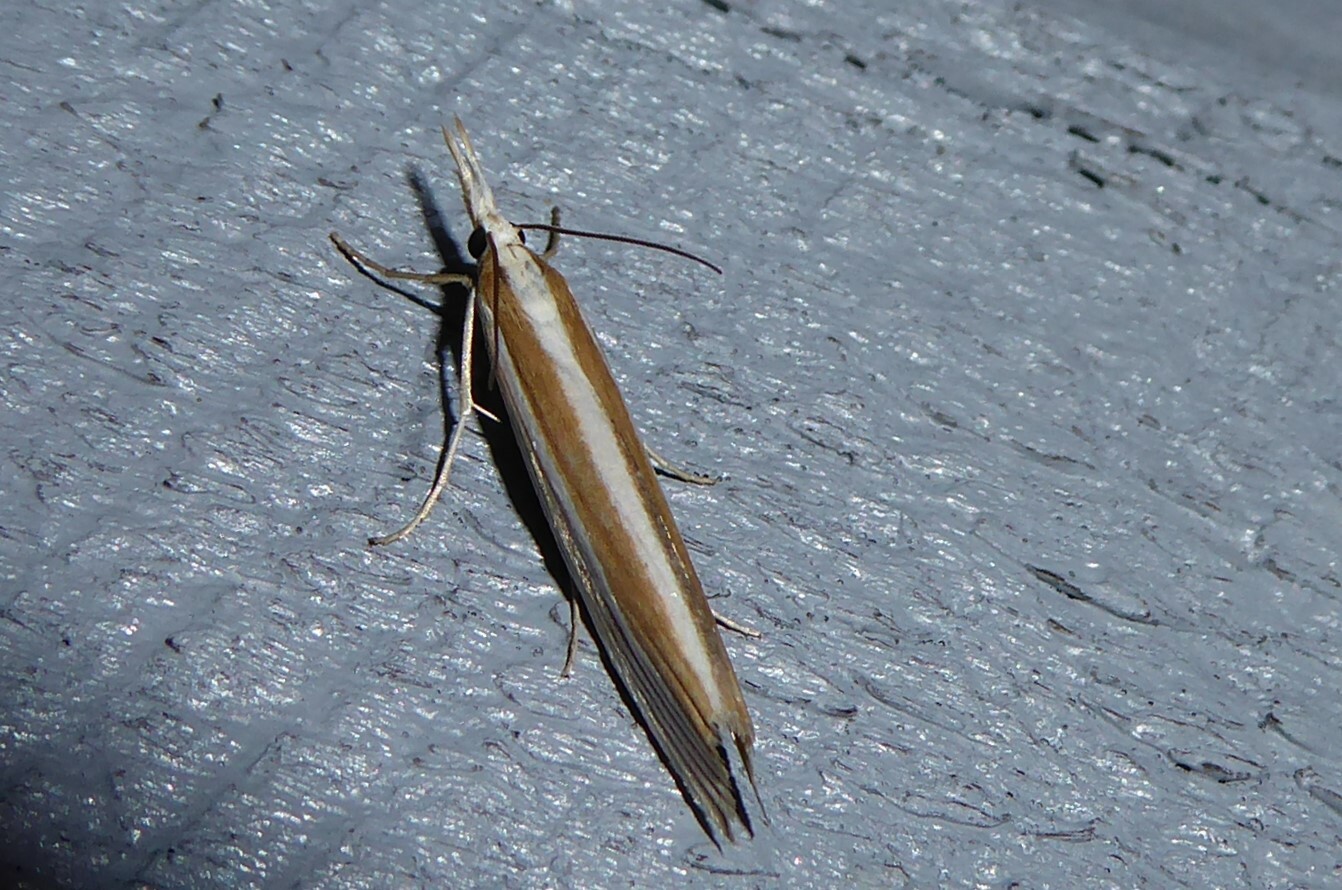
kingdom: Animalia
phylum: Arthropoda
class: Insecta
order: Lepidoptera
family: Crambidae
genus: Orocrambus
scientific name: Orocrambus angustipennis
